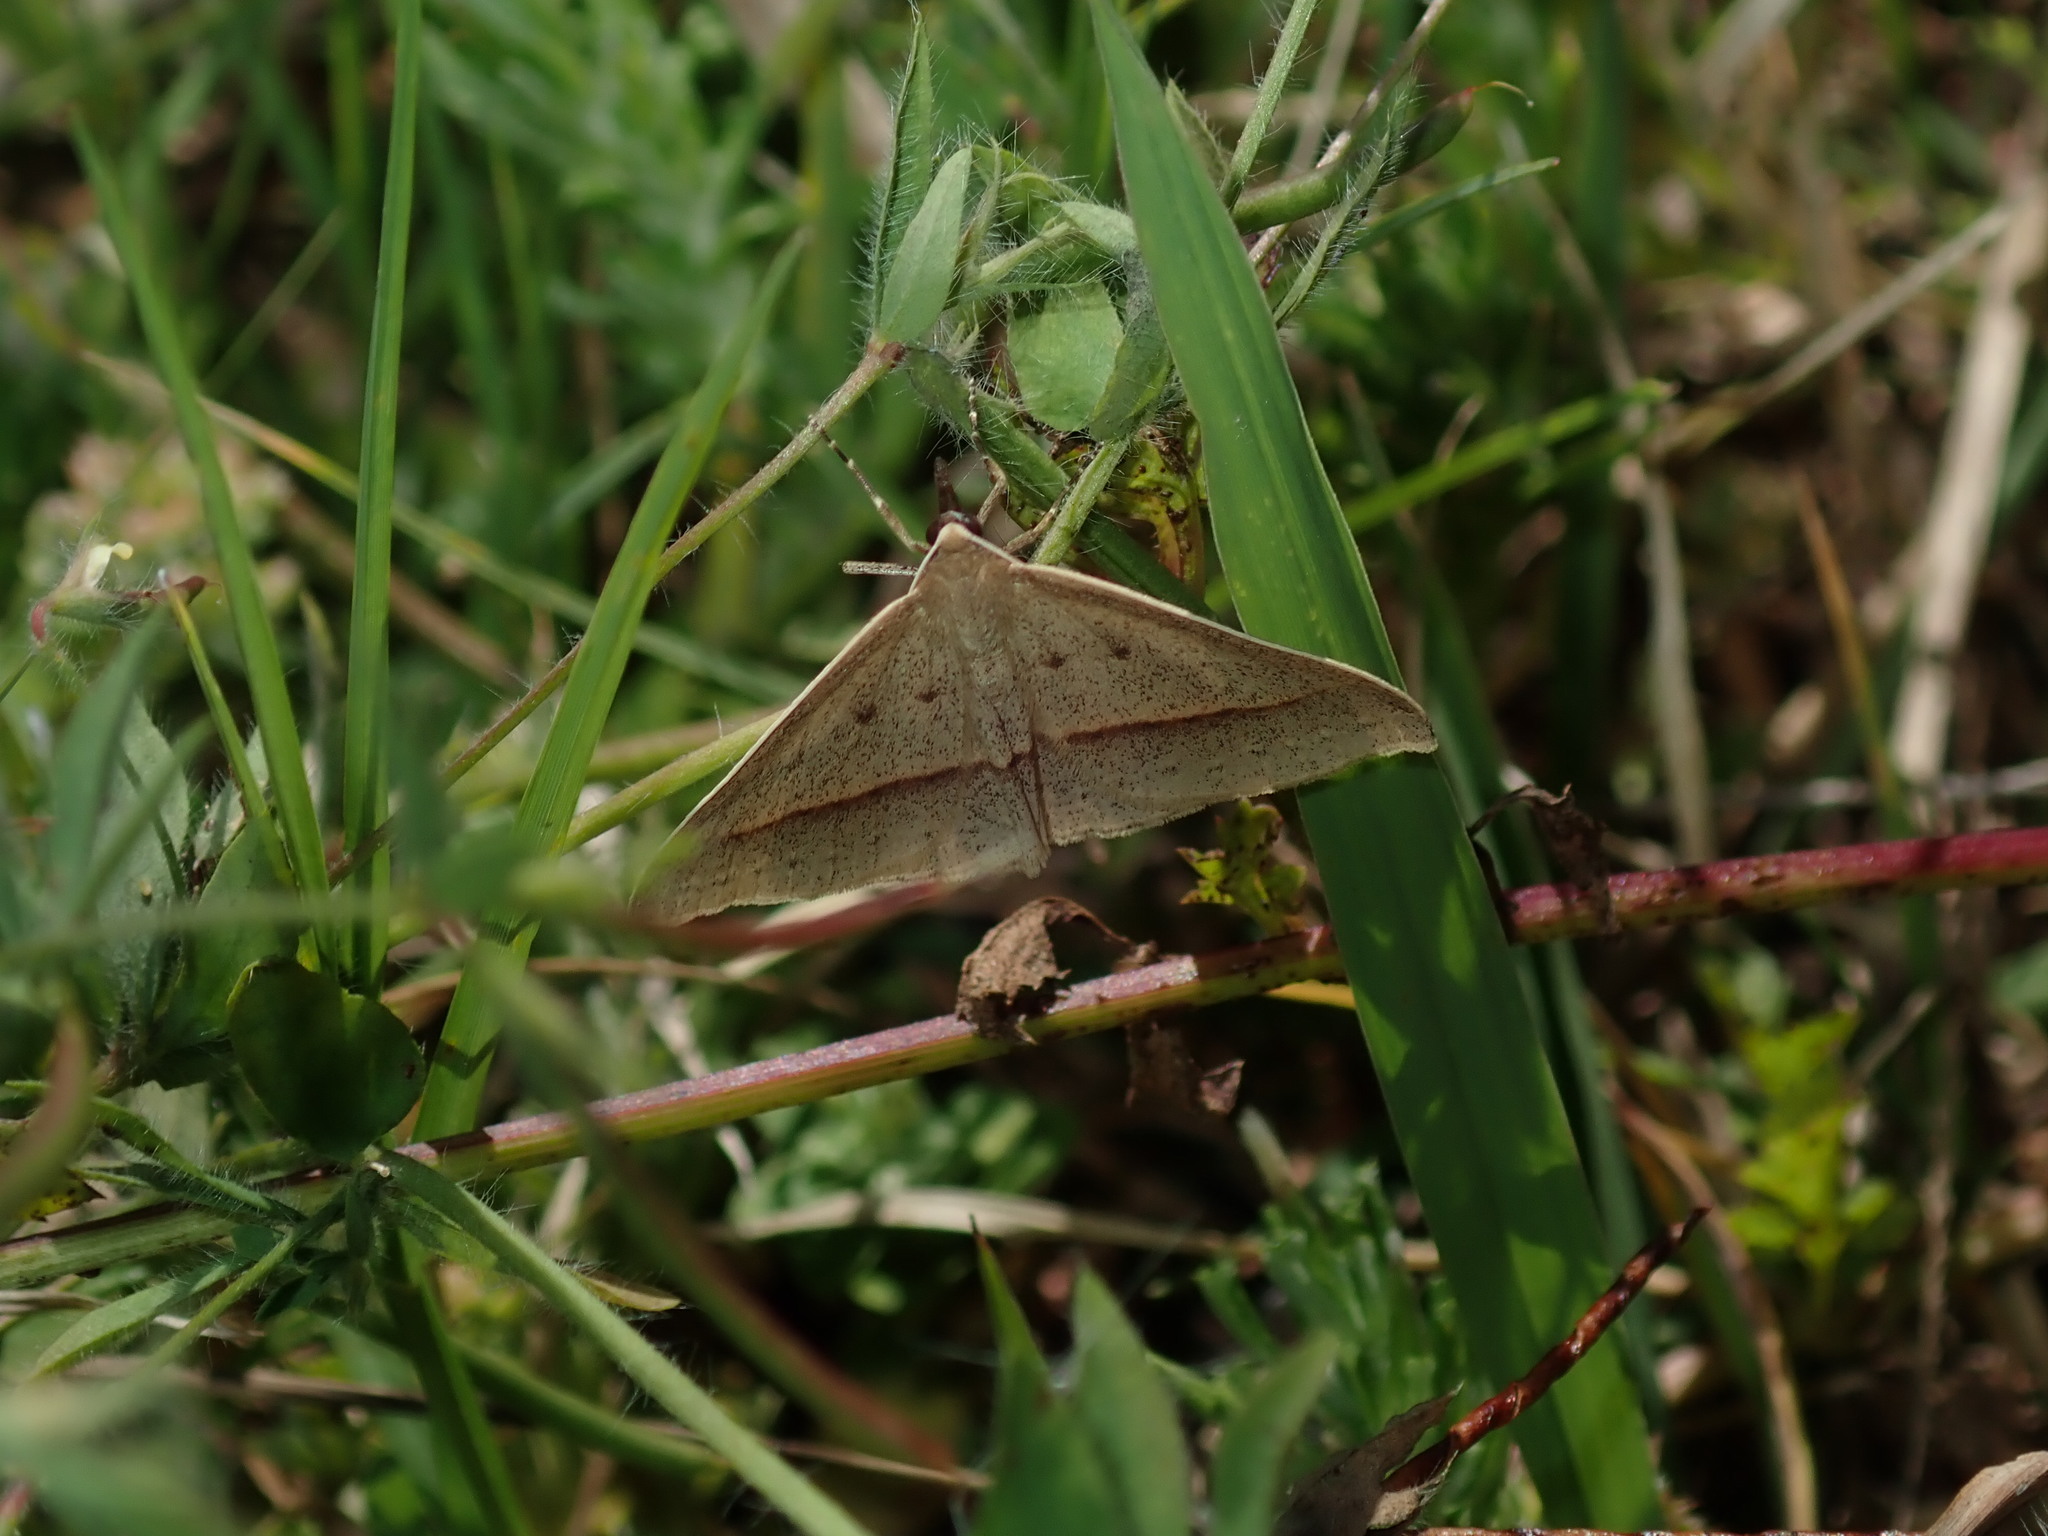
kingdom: Animalia
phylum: Arthropoda
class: Insecta
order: Lepidoptera
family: Geometridae
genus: Epidesmia
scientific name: Epidesmia tryxaria
